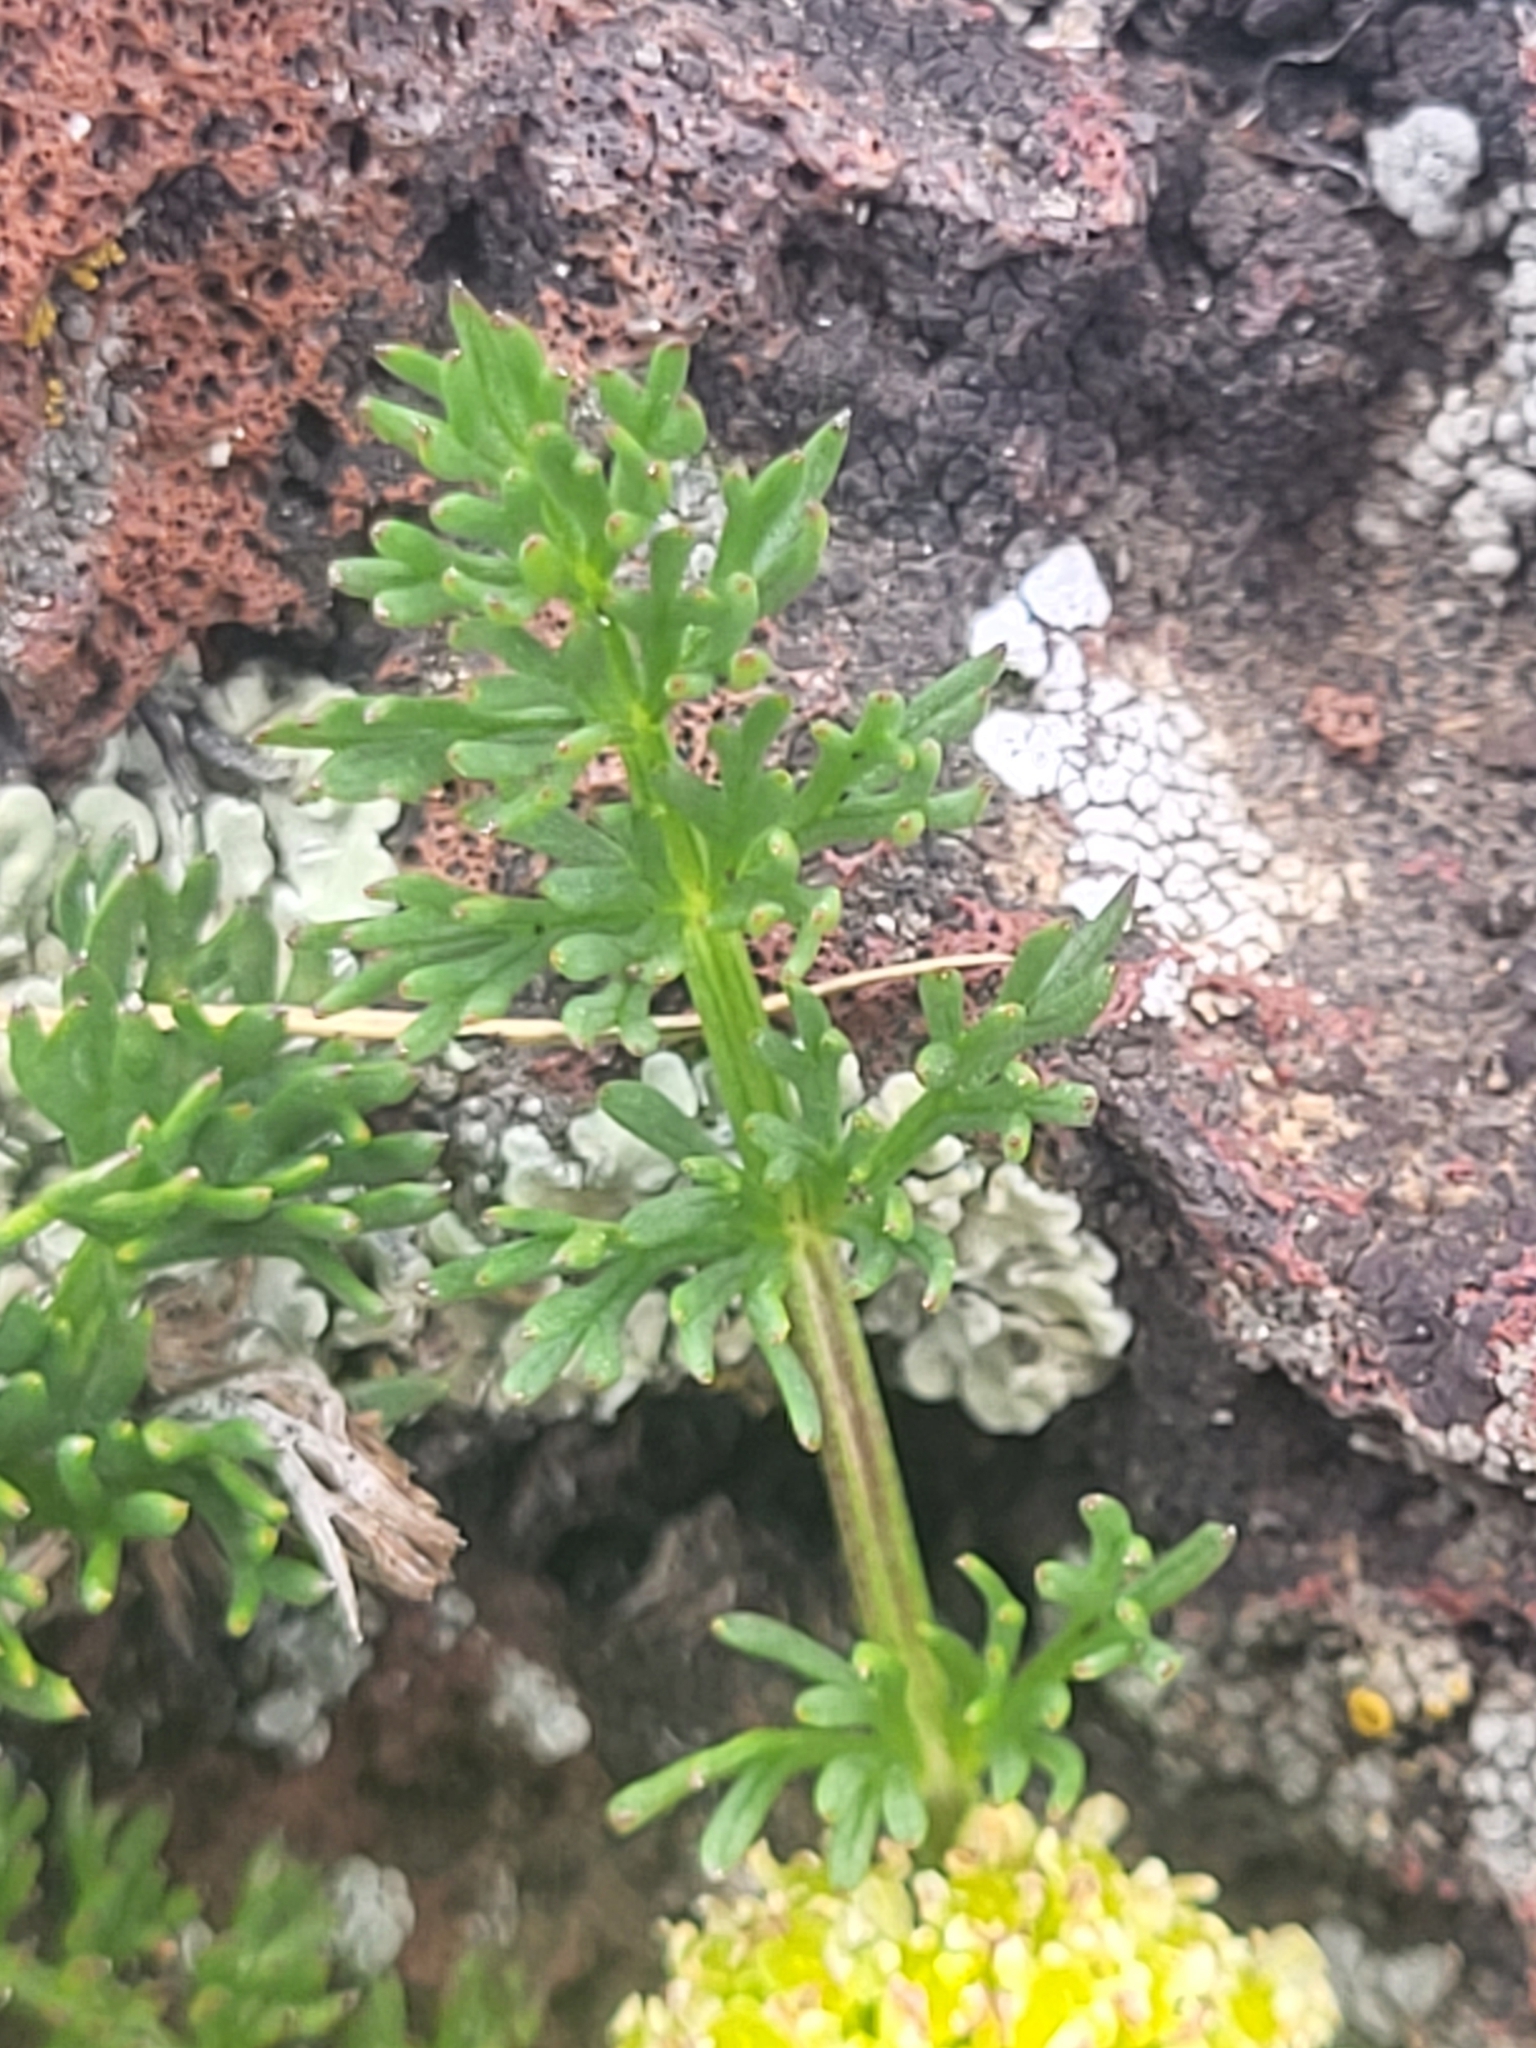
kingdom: Plantae
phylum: Tracheophyta
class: Magnoliopsida
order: Apiales
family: Apiaceae
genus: Chamaesciadium
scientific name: Chamaesciadium acaule
